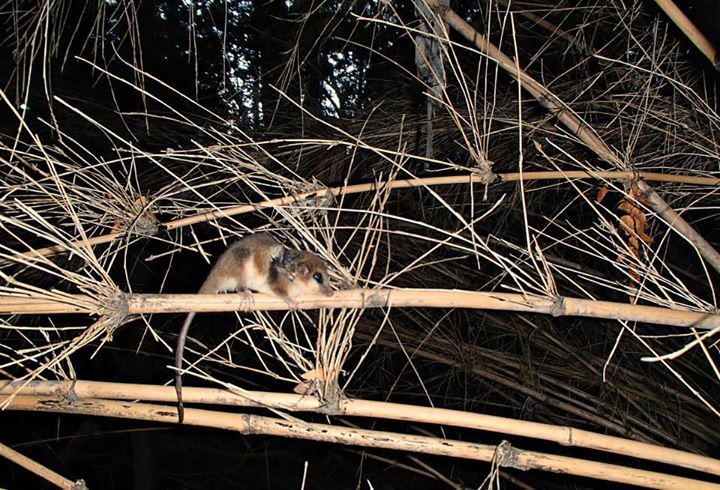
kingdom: Animalia
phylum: Chordata
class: Mammalia
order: Microbiotheria
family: Microbiotheriidae
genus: Dromiciops
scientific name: Dromiciops gliroides
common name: Monito del monte
